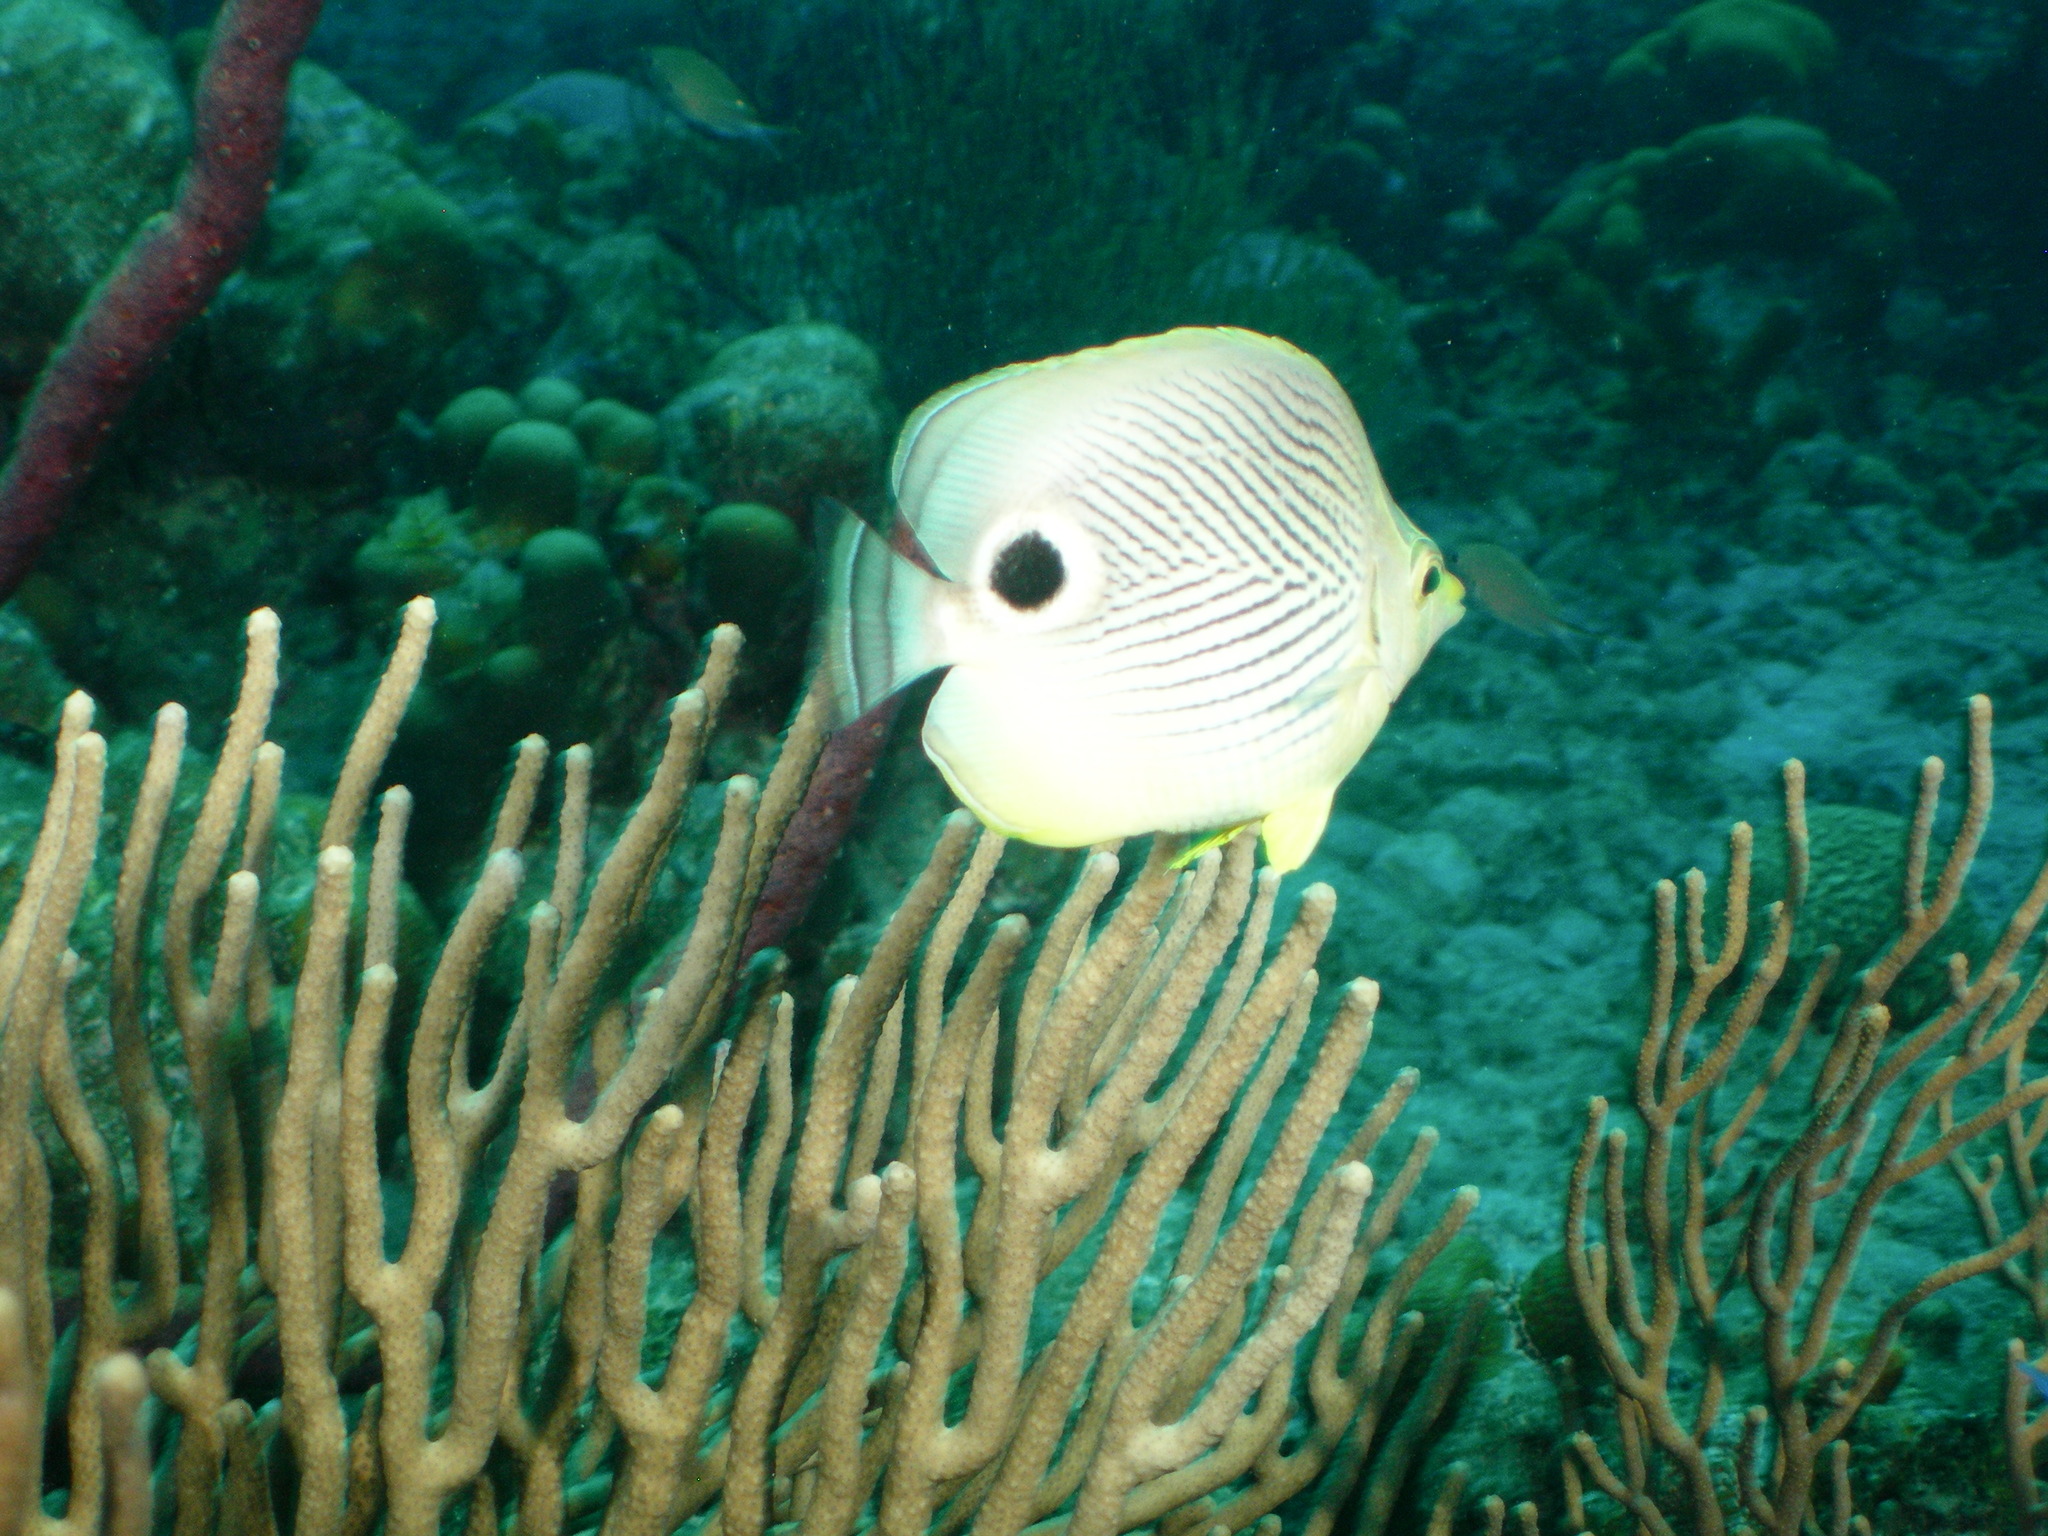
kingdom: Animalia
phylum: Chordata
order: Perciformes
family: Chaetodontidae
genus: Chaetodon
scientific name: Chaetodon capistratus
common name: Kete
